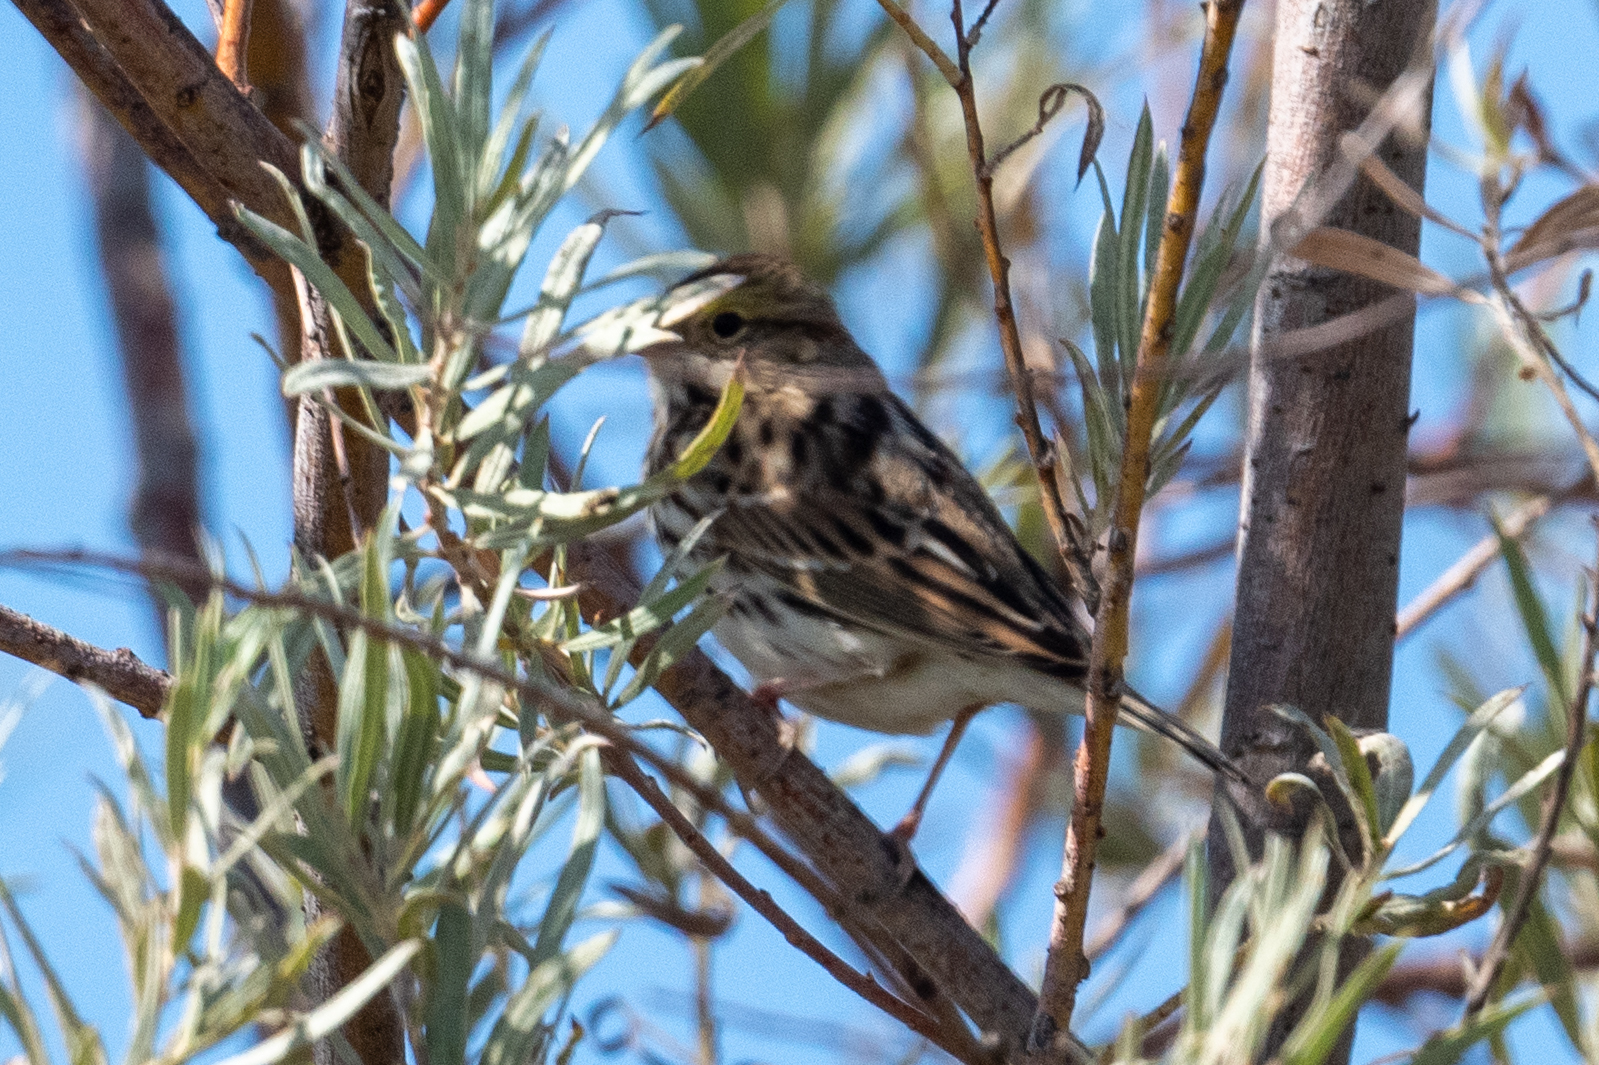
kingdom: Animalia
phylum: Chordata
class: Aves
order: Passeriformes
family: Passerellidae
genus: Passerculus
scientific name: Passerculus sandwichensis
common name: Savannah sparrow
